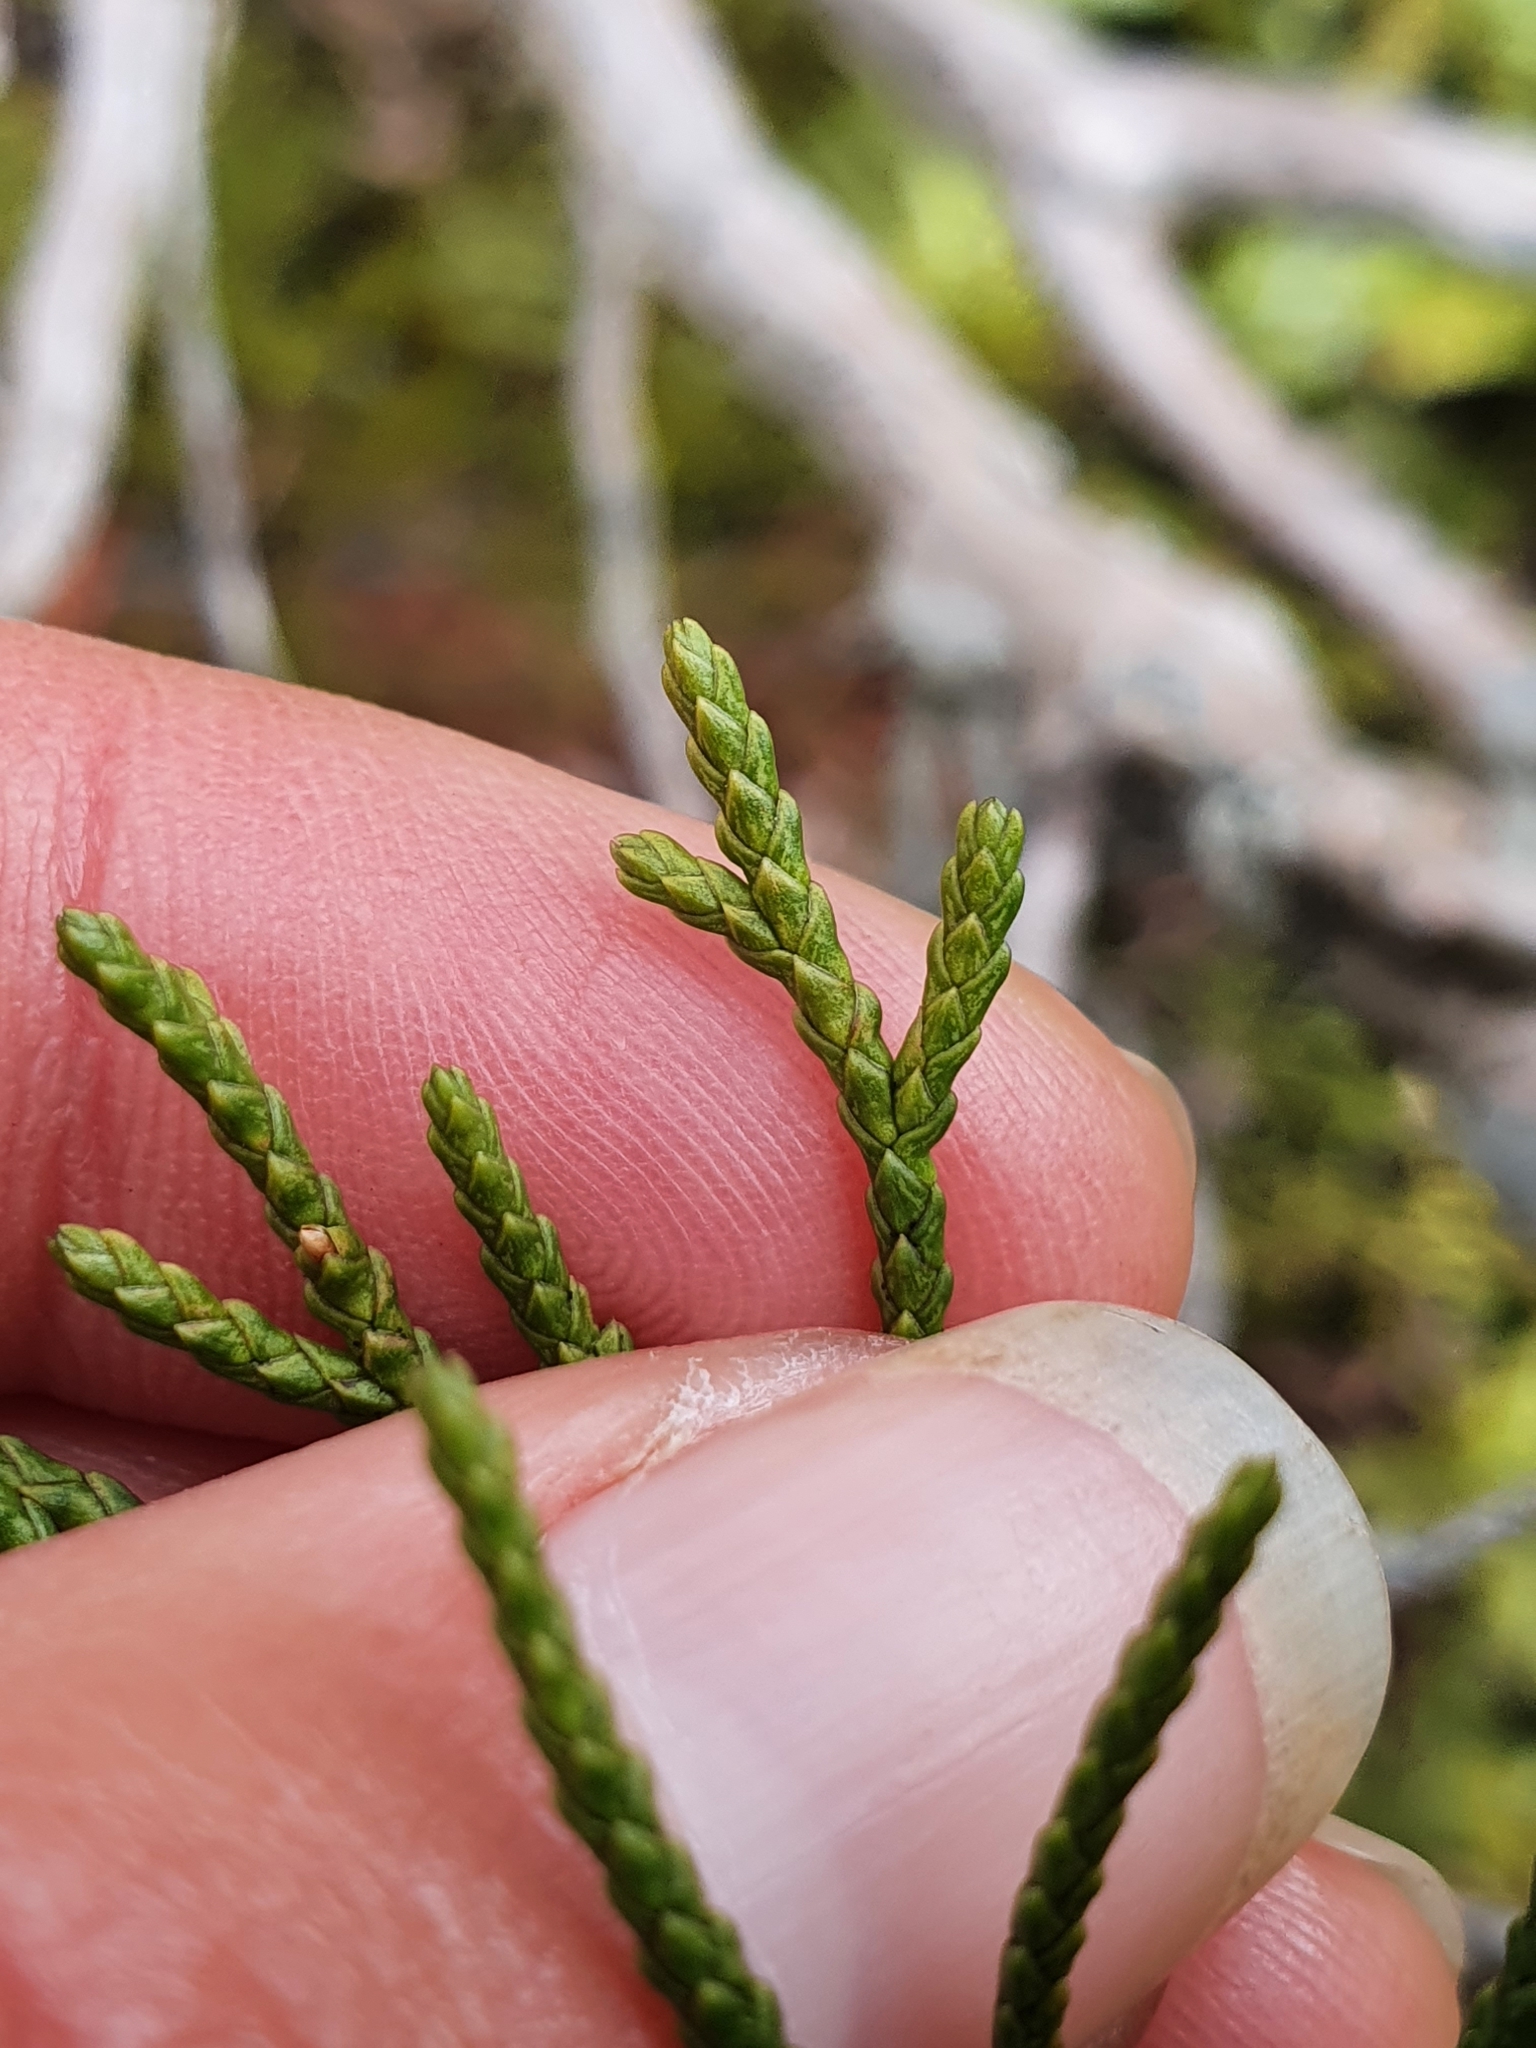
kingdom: Plantae
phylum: Tracheophyta
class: Pinopsida
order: Pinales
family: Cupressaceae
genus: Libocedrus
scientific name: Libocedrus bidwillii
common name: Cedar
